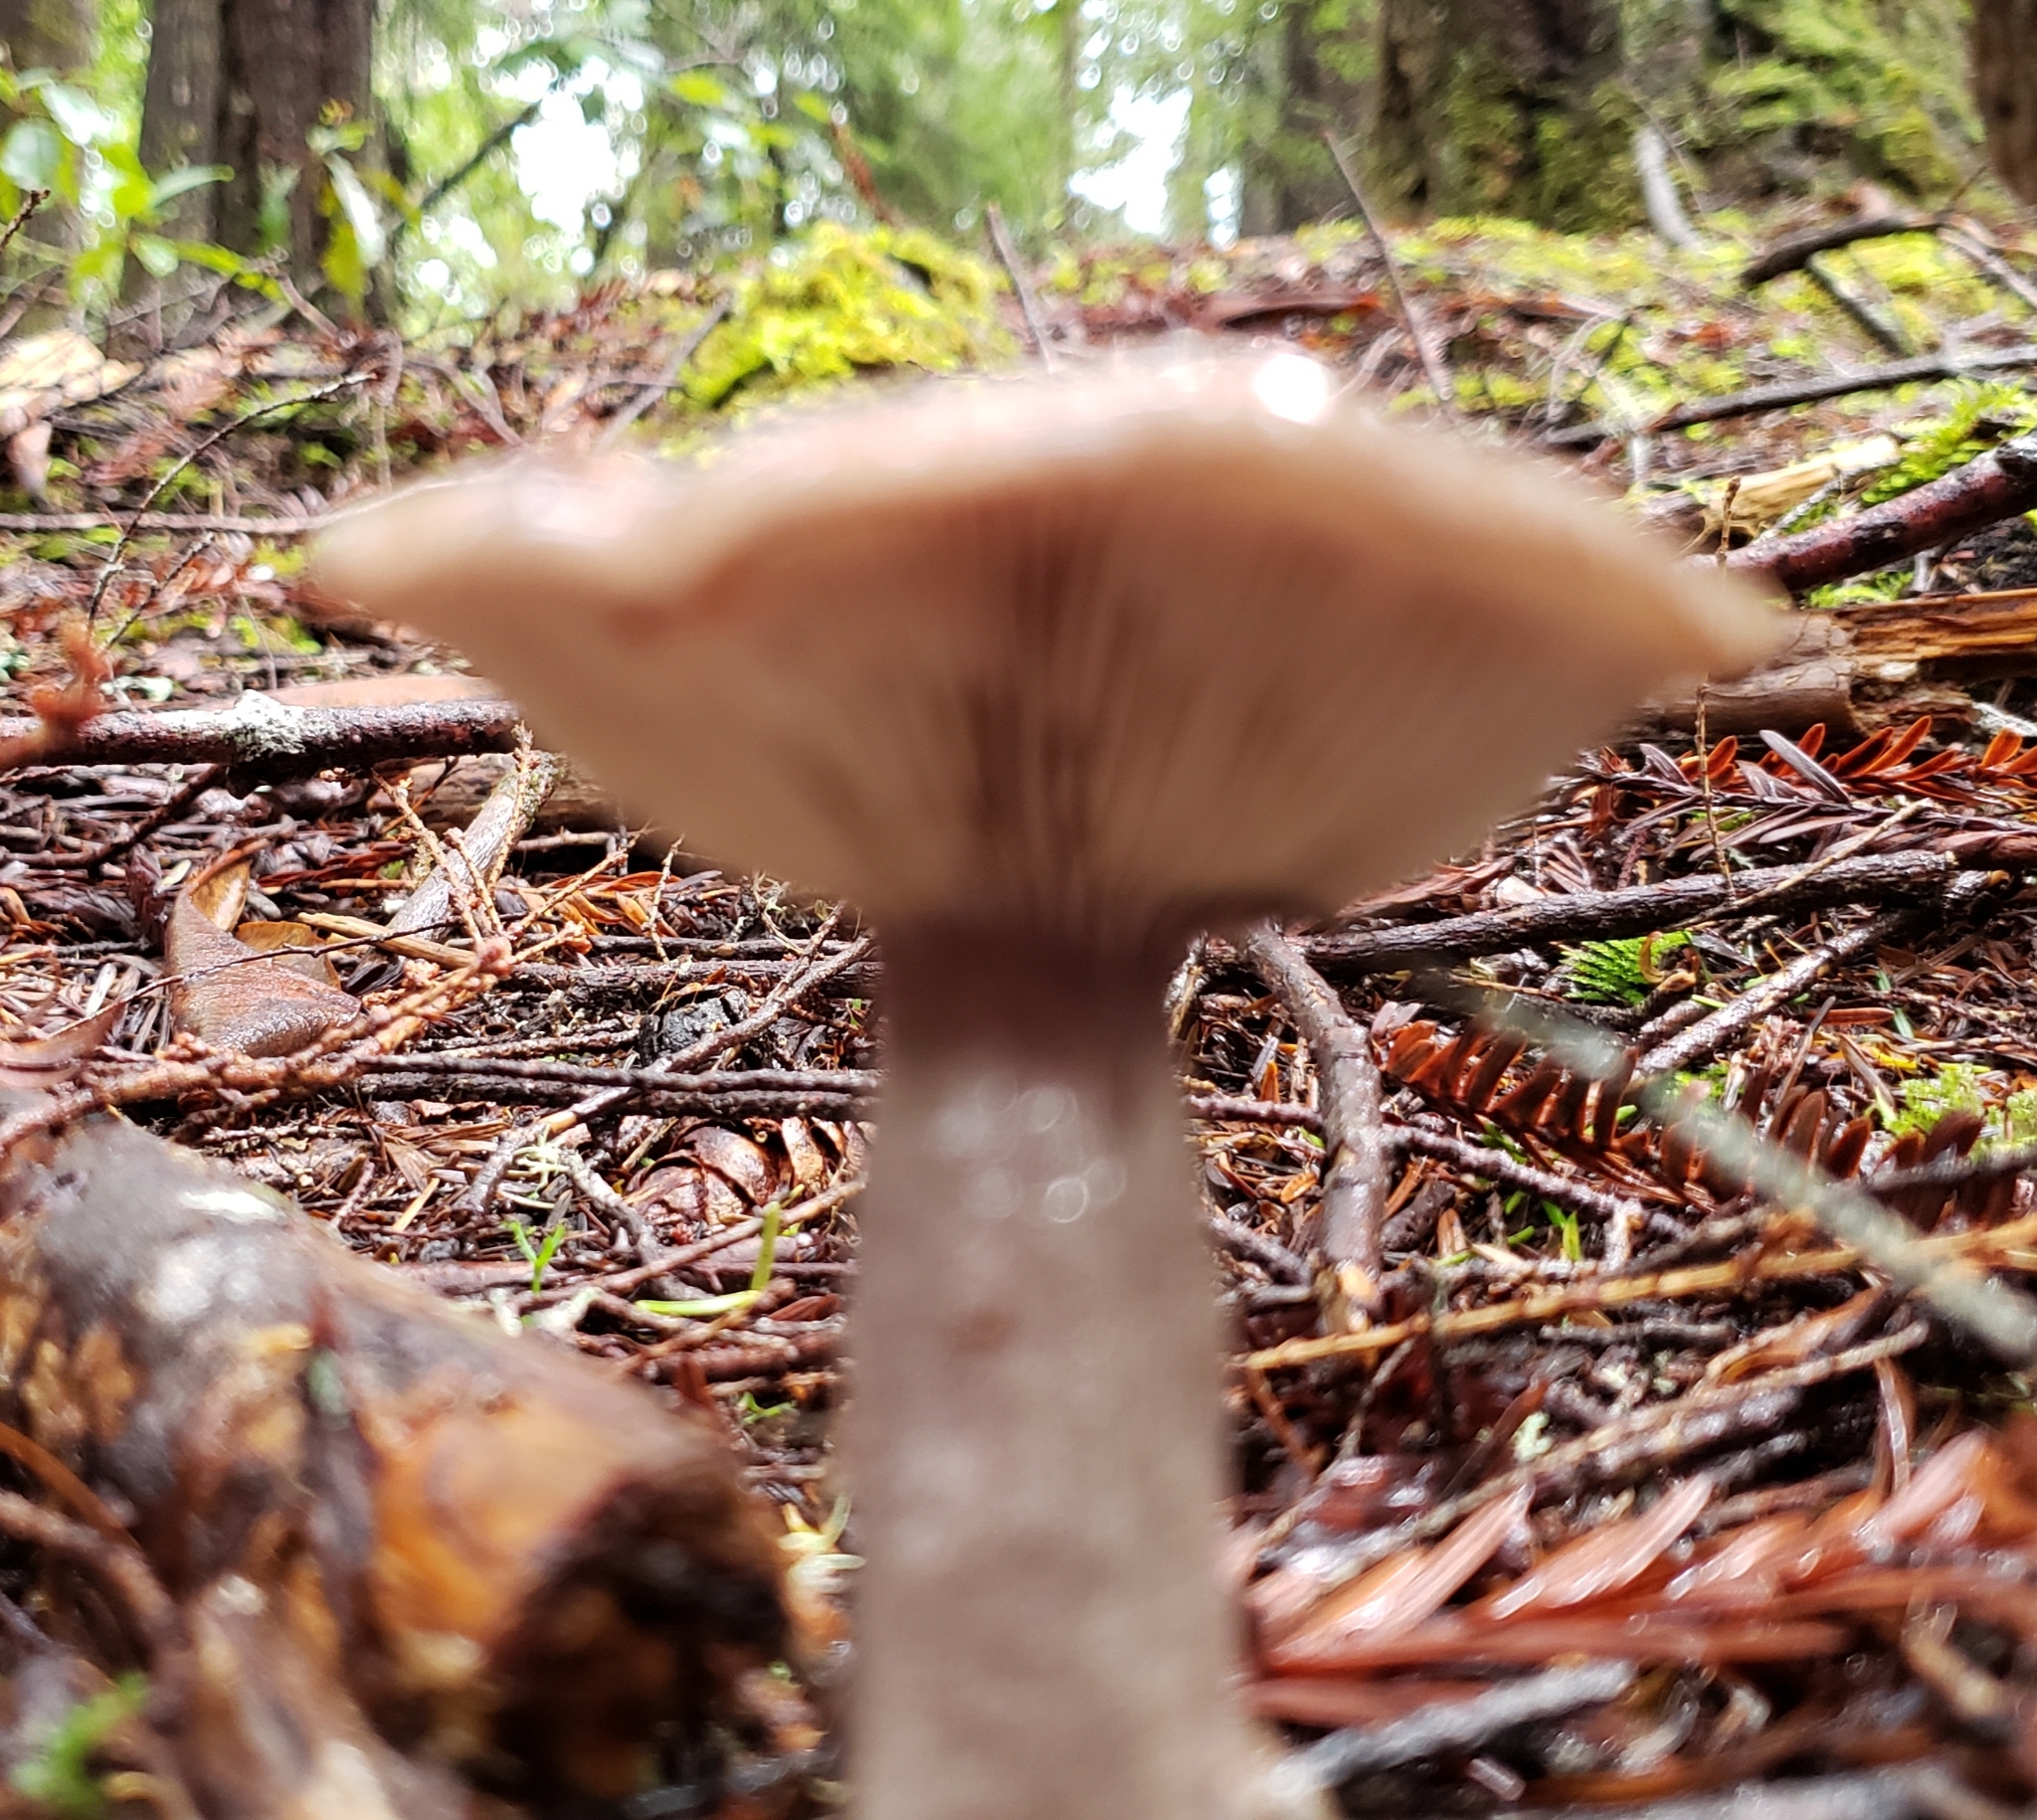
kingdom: Fungi
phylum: Basidiomycota
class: Agaricomycetes
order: Russulales
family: Russulaceae
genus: Lactarius
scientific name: Lactarius pseudomucidus
